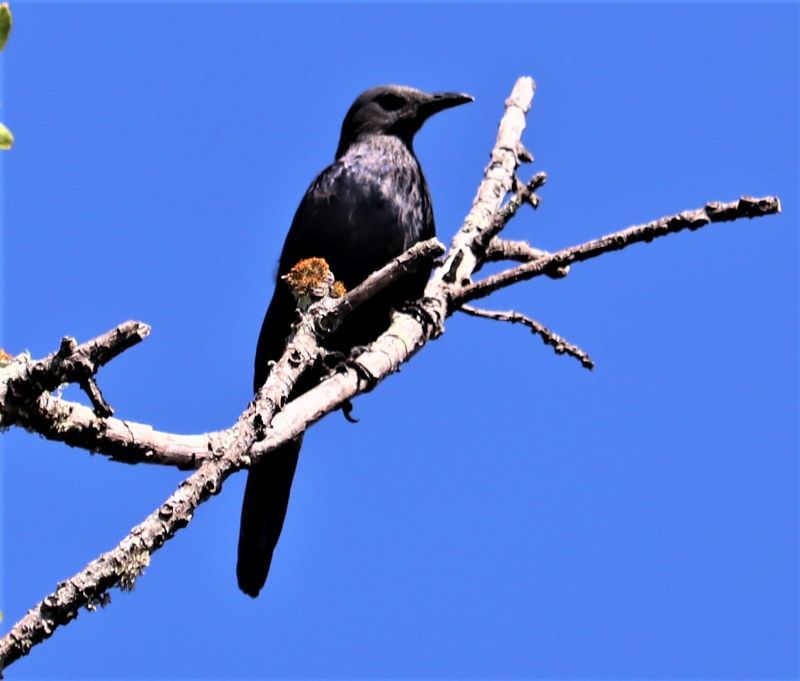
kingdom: Animalia
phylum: Chordata
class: Aves
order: Passeriformes
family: Sturnidae
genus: Onychognathus
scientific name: Onychognathus morio
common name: Red-winged starling
